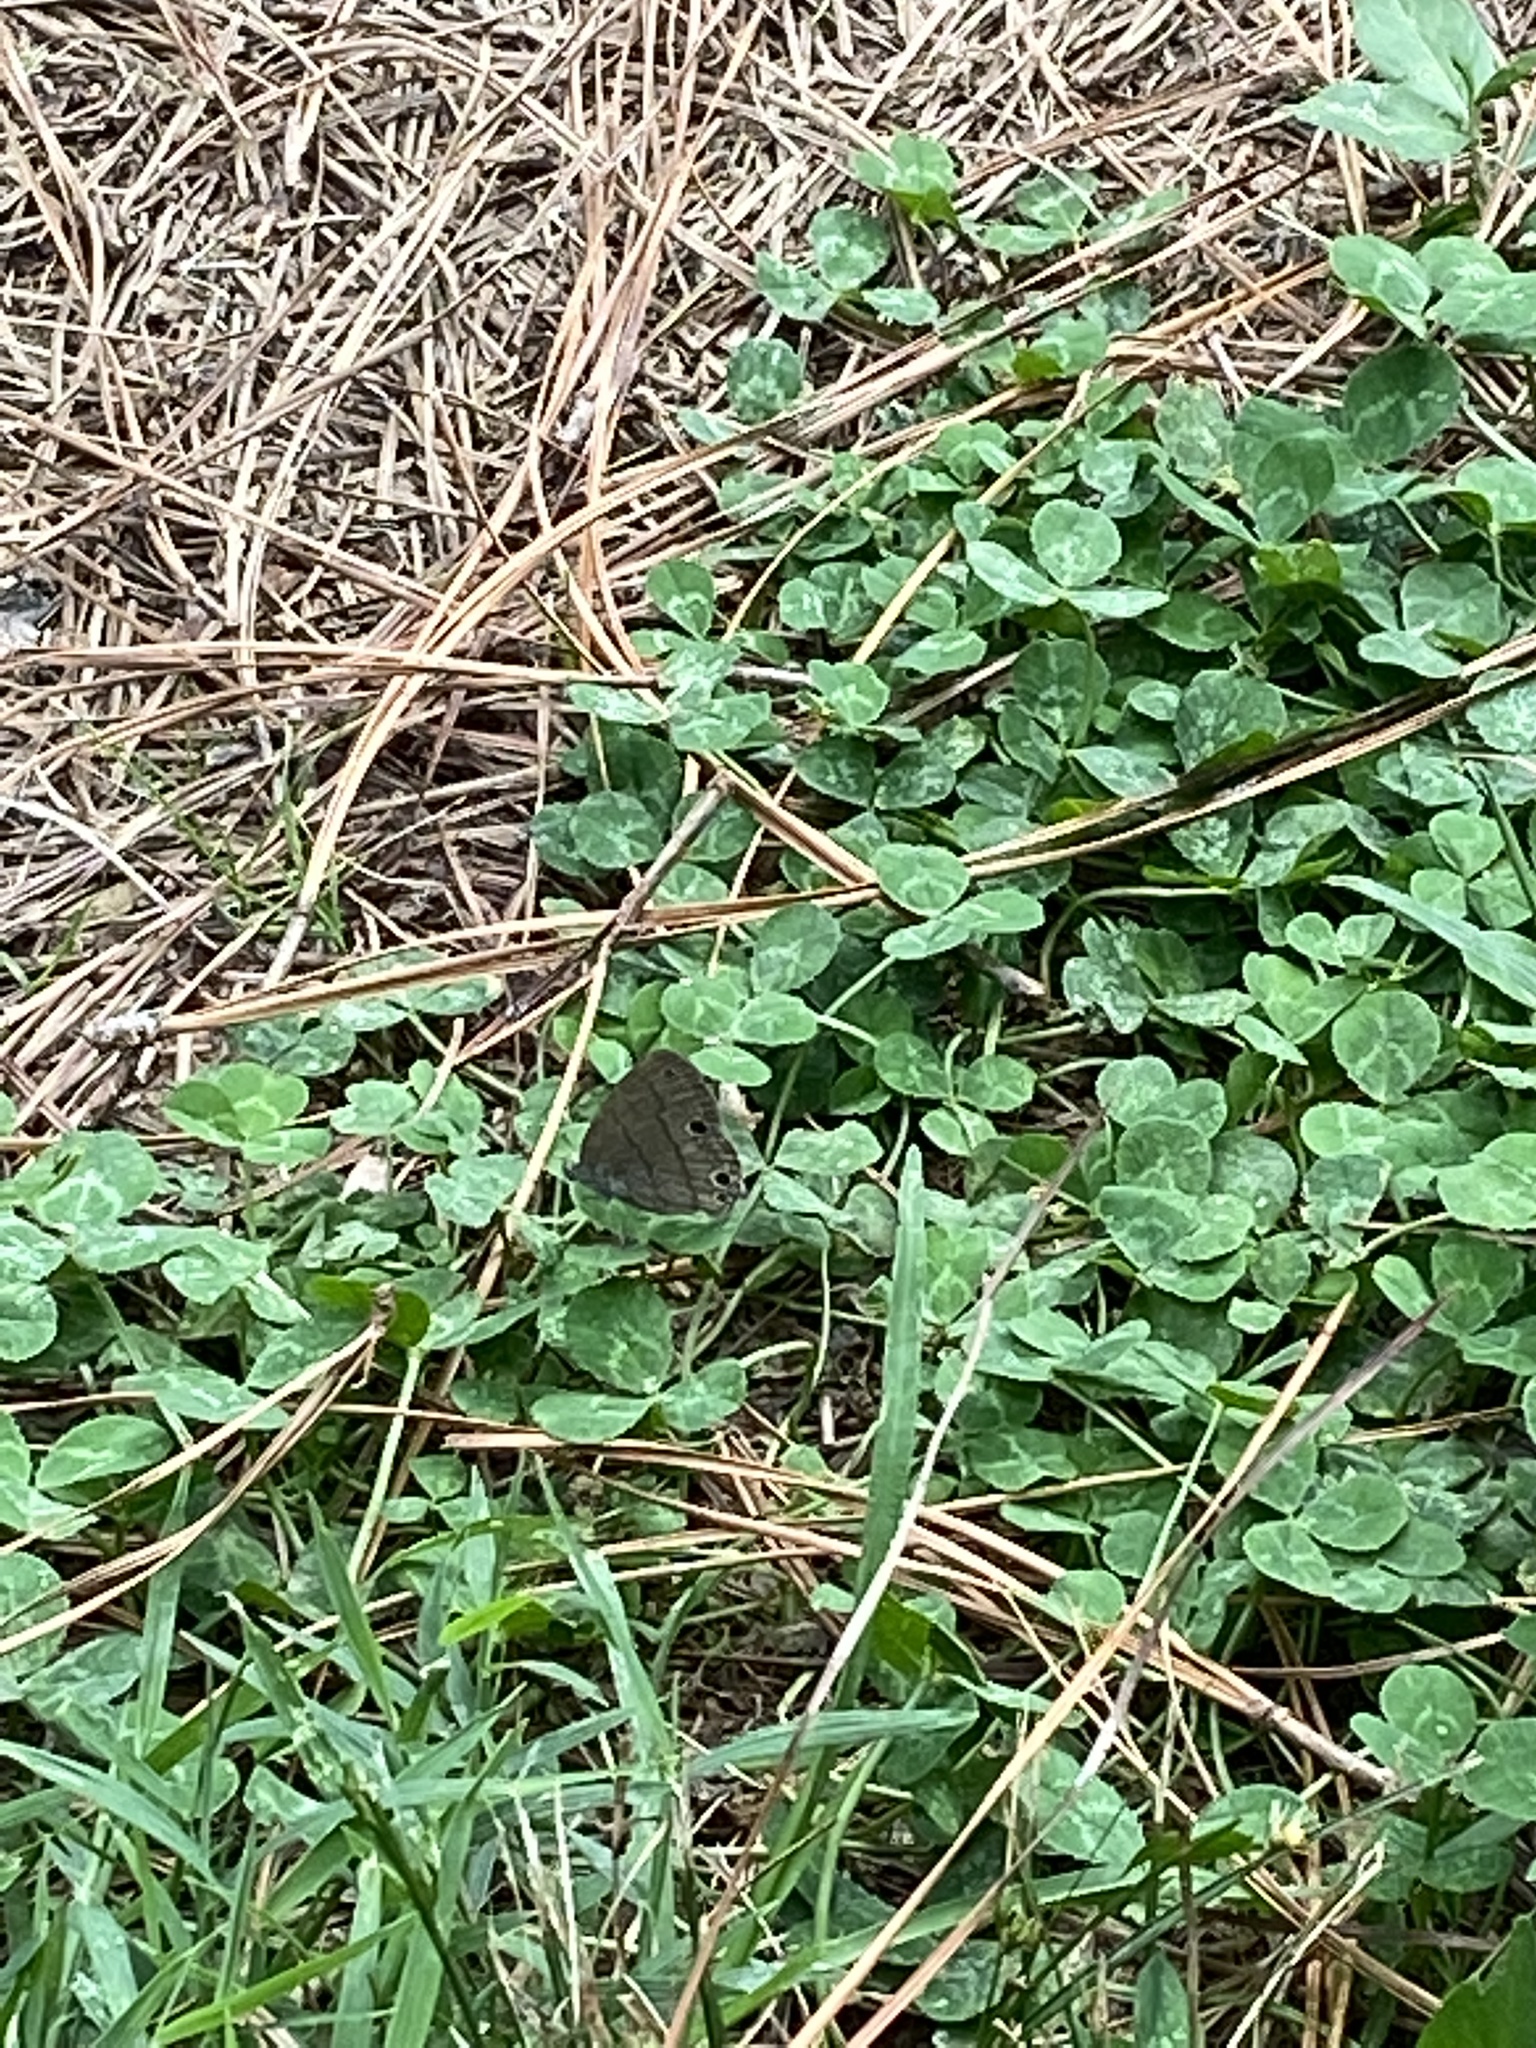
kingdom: Animalia
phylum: Arthropoda
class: Insecta
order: Lepidoptera
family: Nymphalidae
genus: Hermeuptychia
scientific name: Hermeuptychia hermes
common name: Hermes satyr
